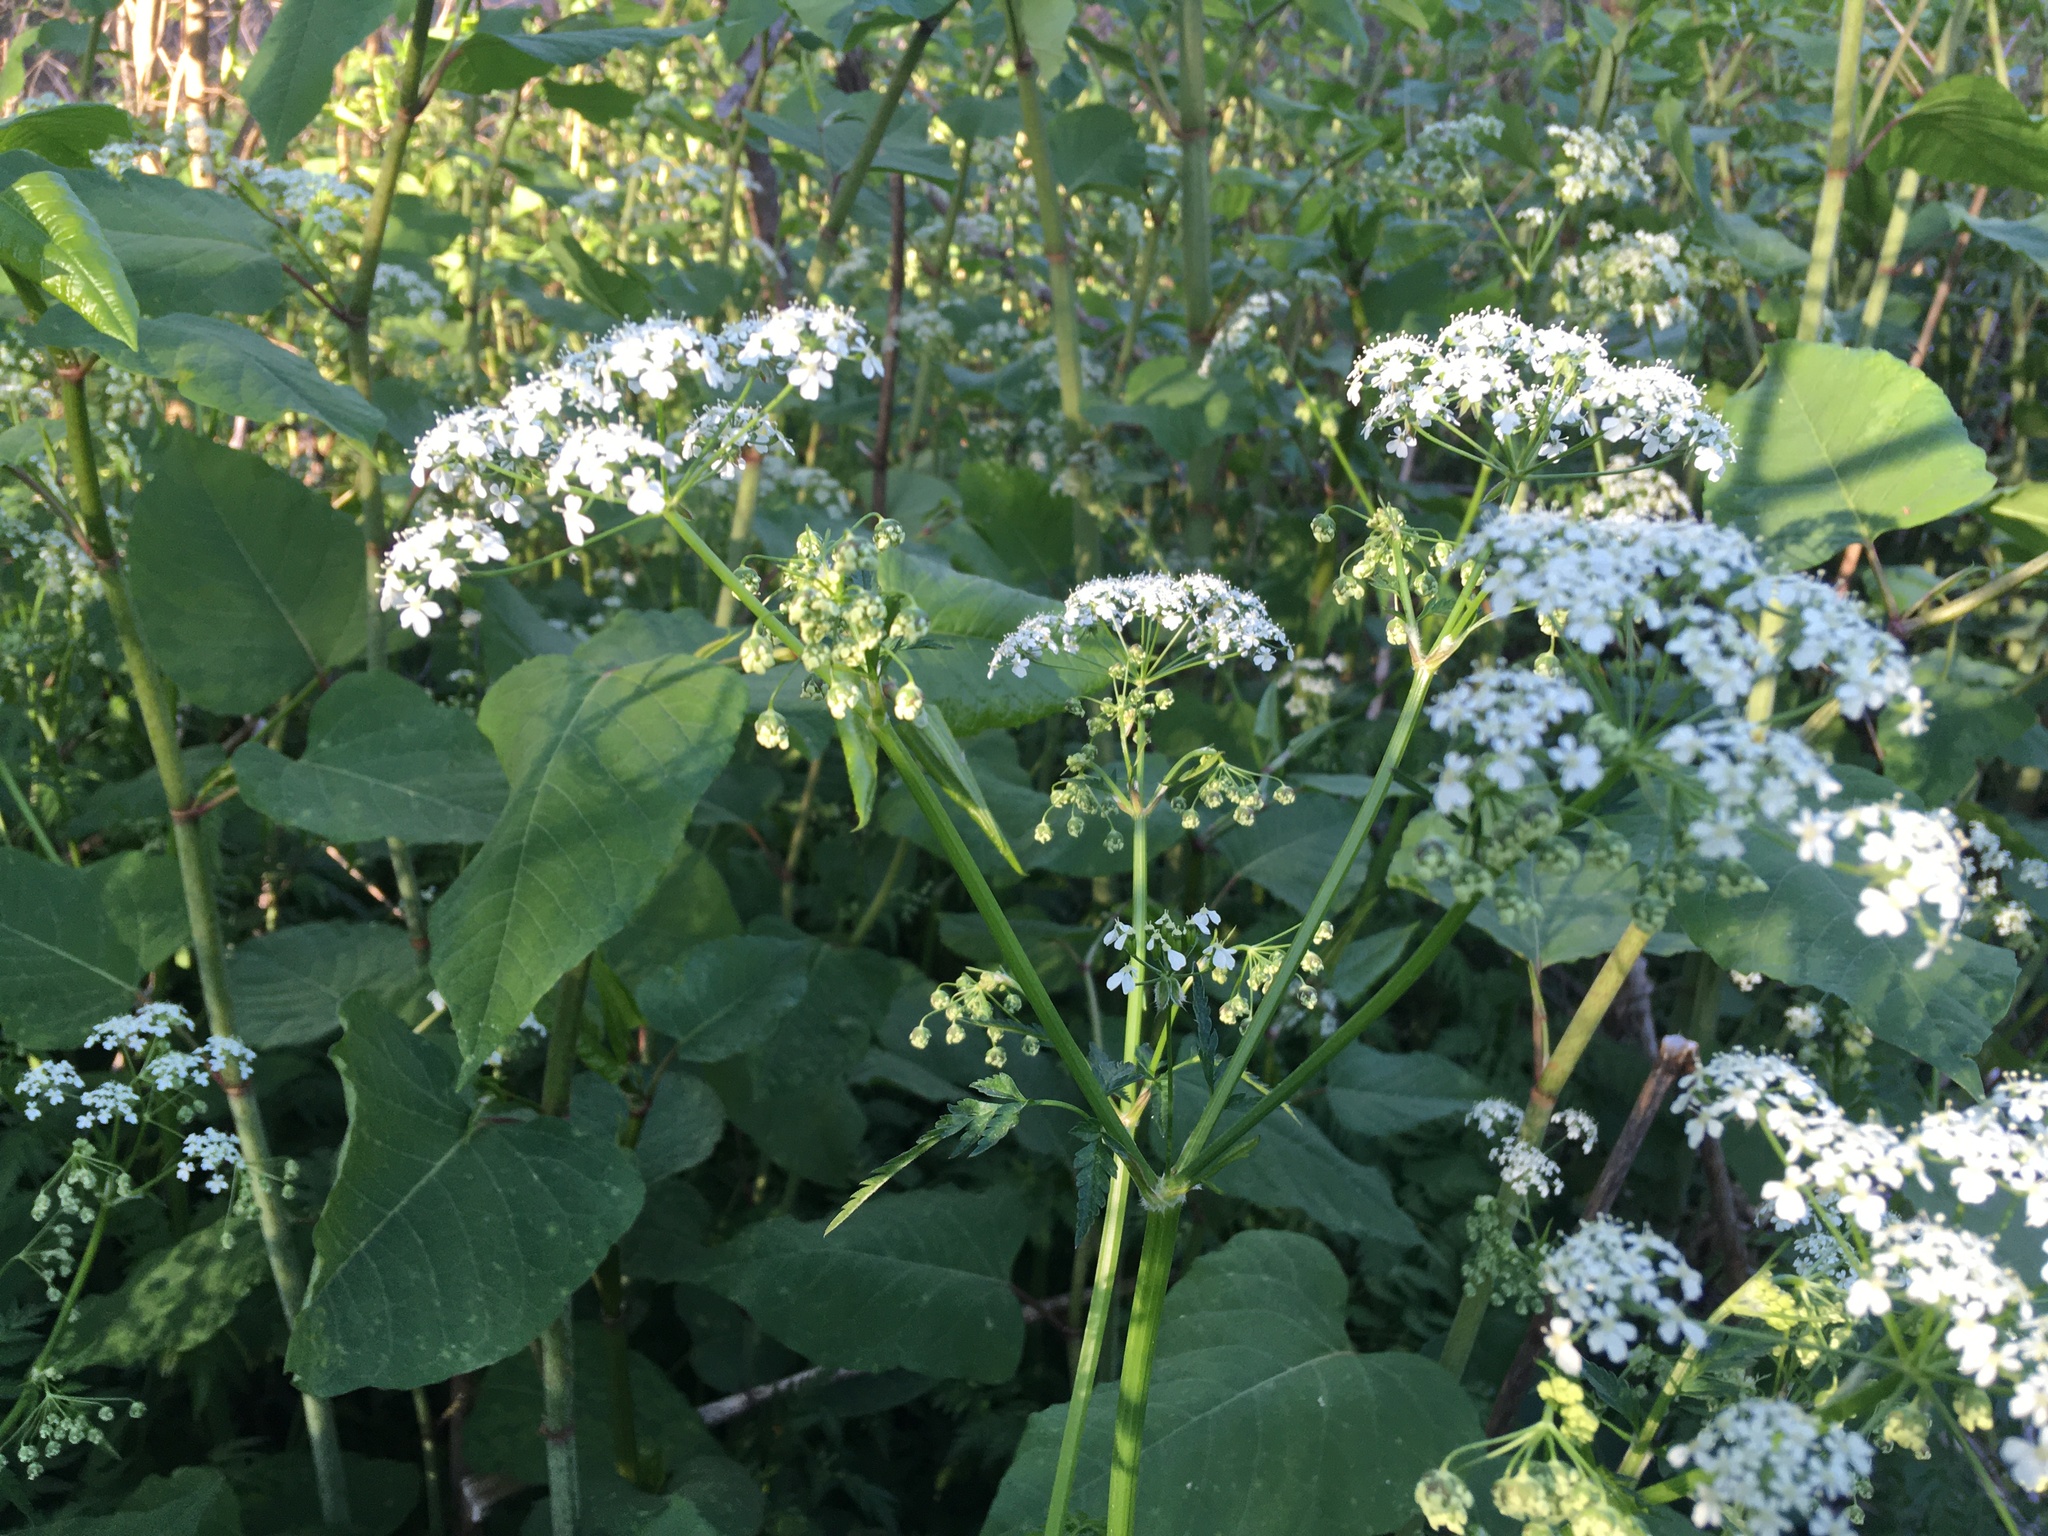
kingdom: Plantae
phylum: Tracheophyta
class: Magnoliopsida
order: Apiales
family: Apiaceae
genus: Anthriscus
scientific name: Anthriscus sylvestris
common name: Cow parsley
